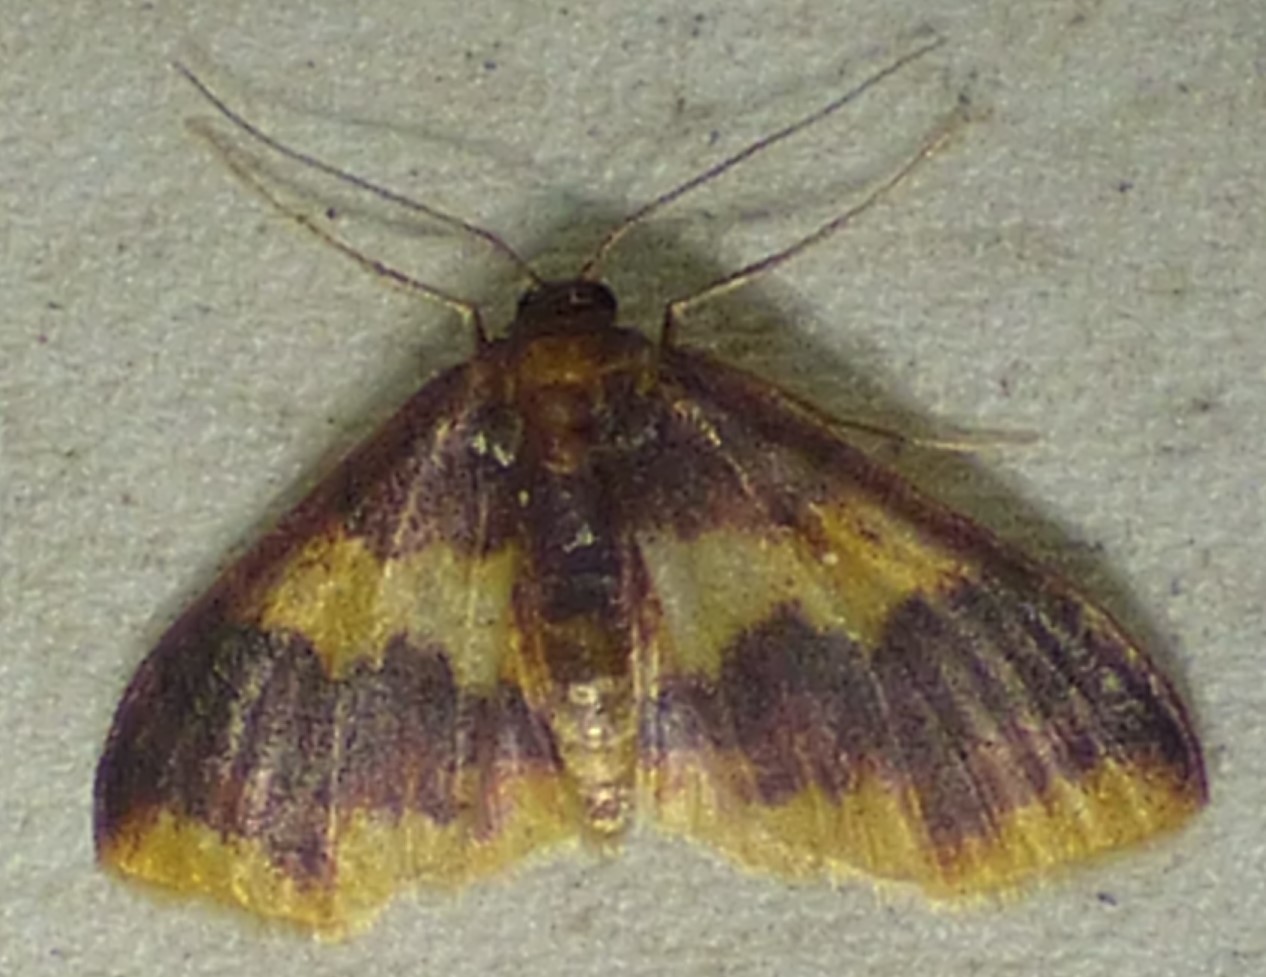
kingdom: Animalia
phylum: Arthropoda
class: Insecta
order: Lepidoptera
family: Geometridae
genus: Lophosis
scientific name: Lophosis labeculata
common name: Stained lophosis moth
